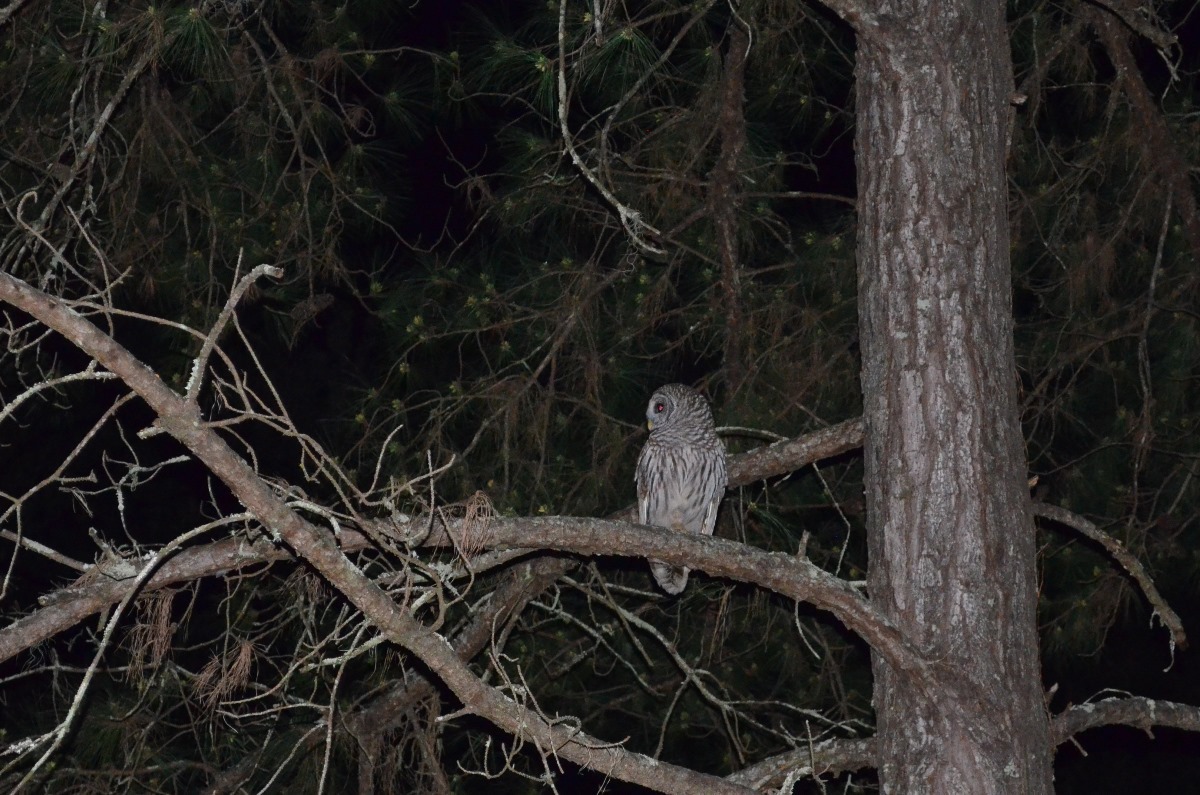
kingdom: Animalia
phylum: Chordata
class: Aves
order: Strigiformes
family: Strigidae
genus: Strix
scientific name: Strix varia
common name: Barred owl
